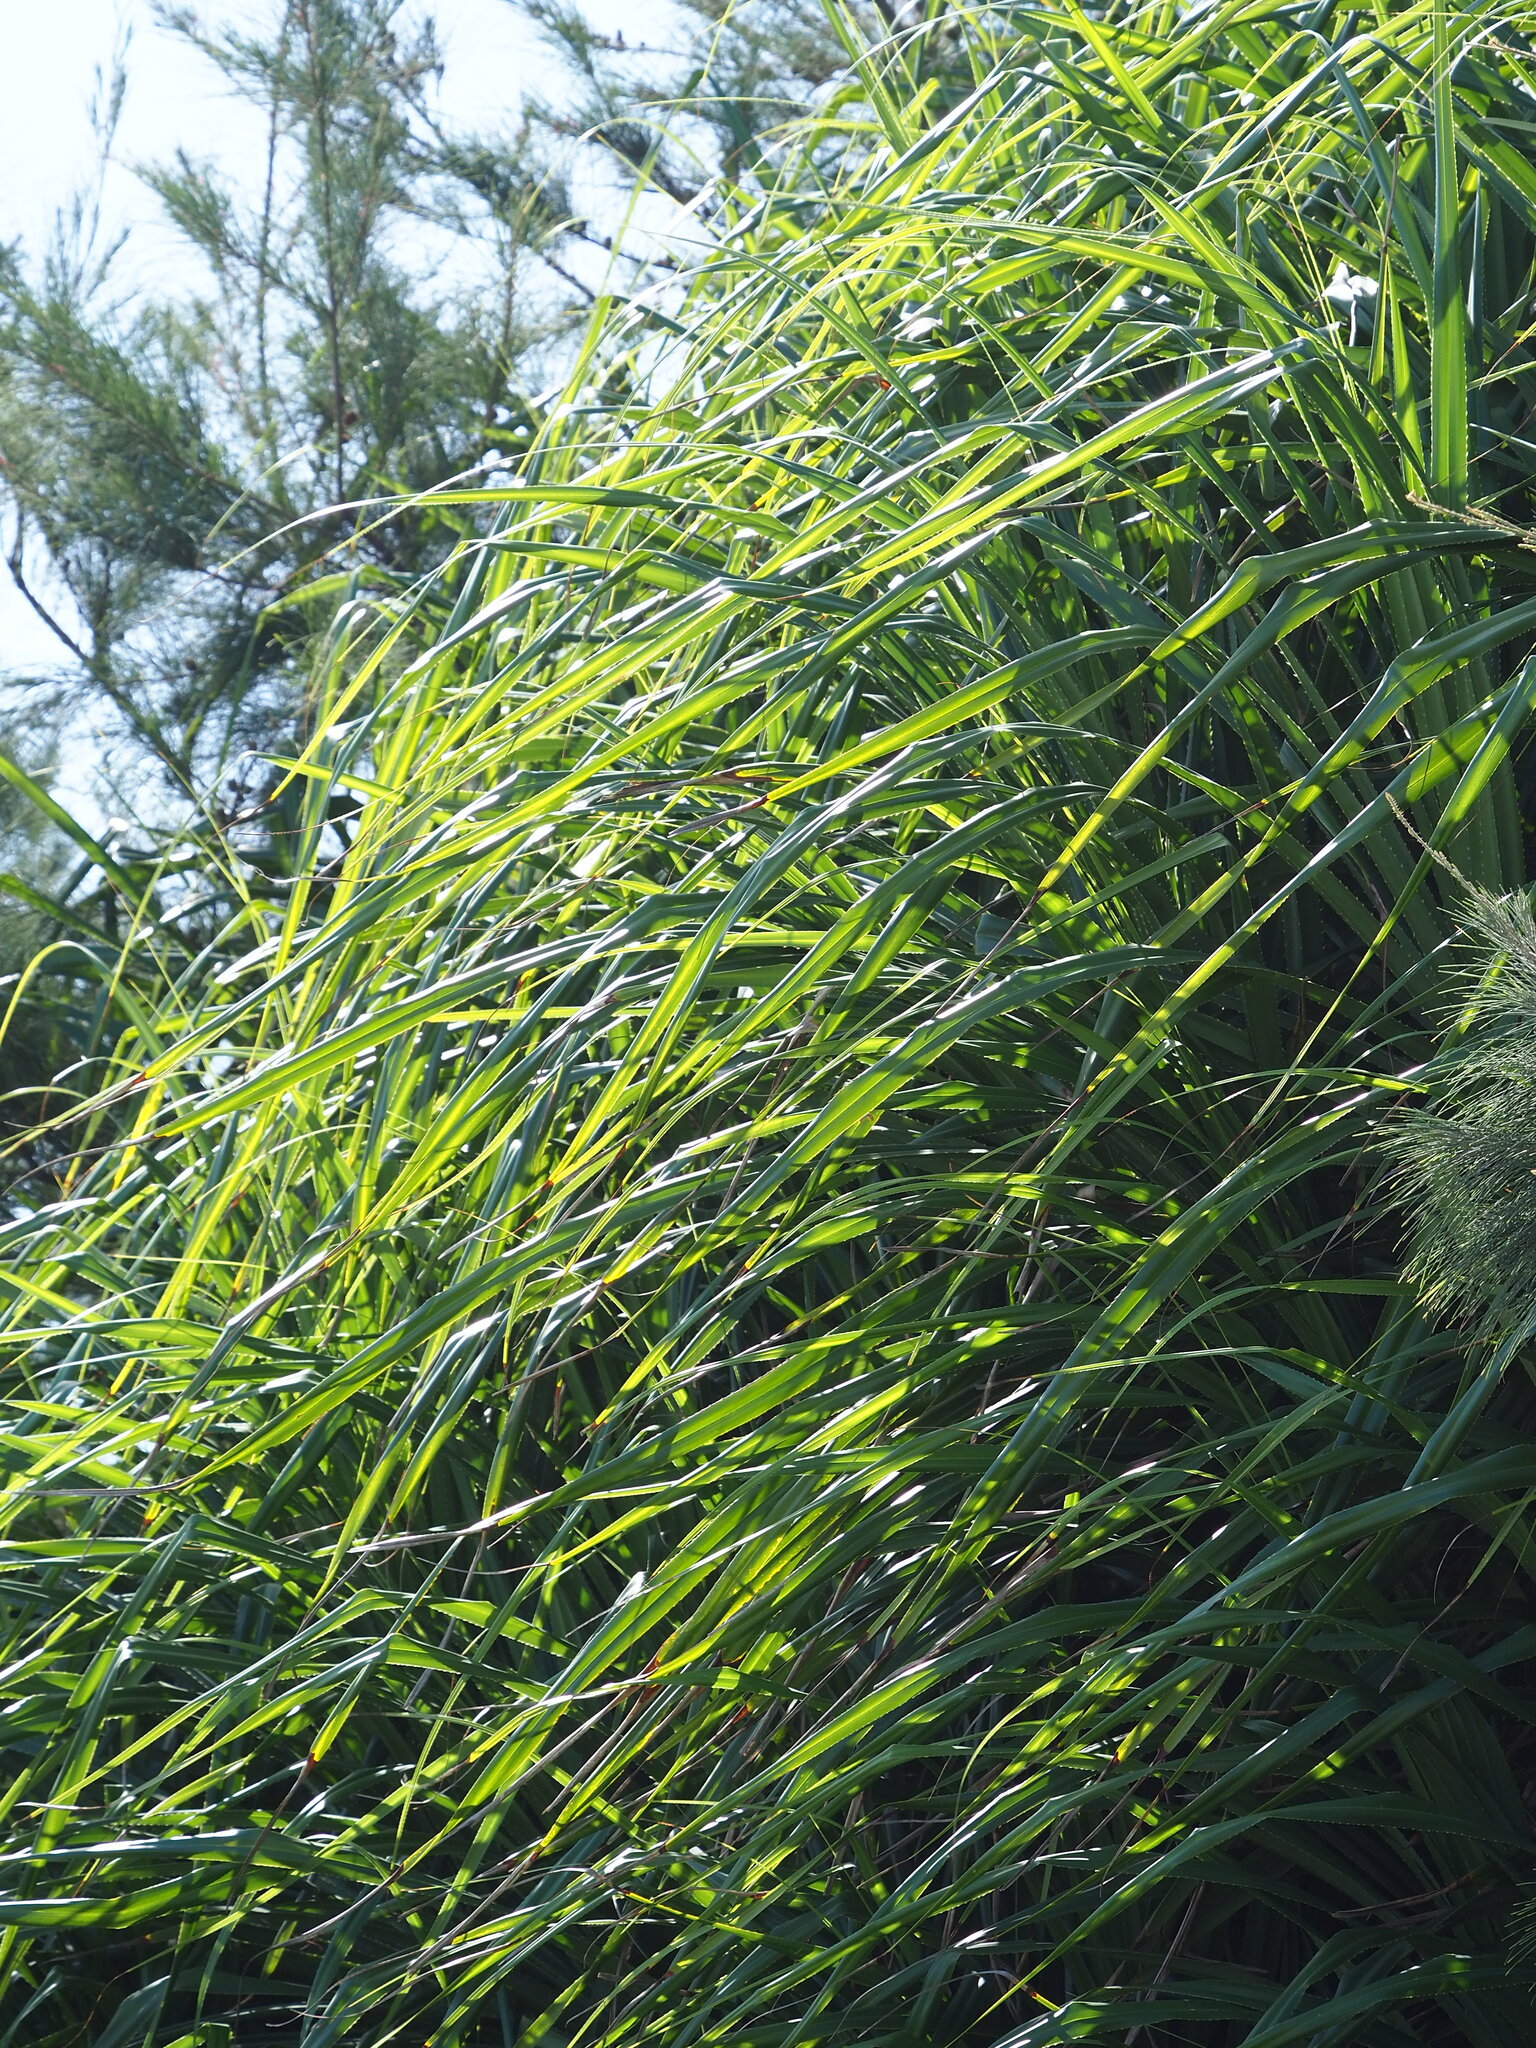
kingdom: Plantae
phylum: Tracheophyta
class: Liliopsida
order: Pandanales
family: Pandanaceae
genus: Pandanus
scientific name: Pandanus odorifer
